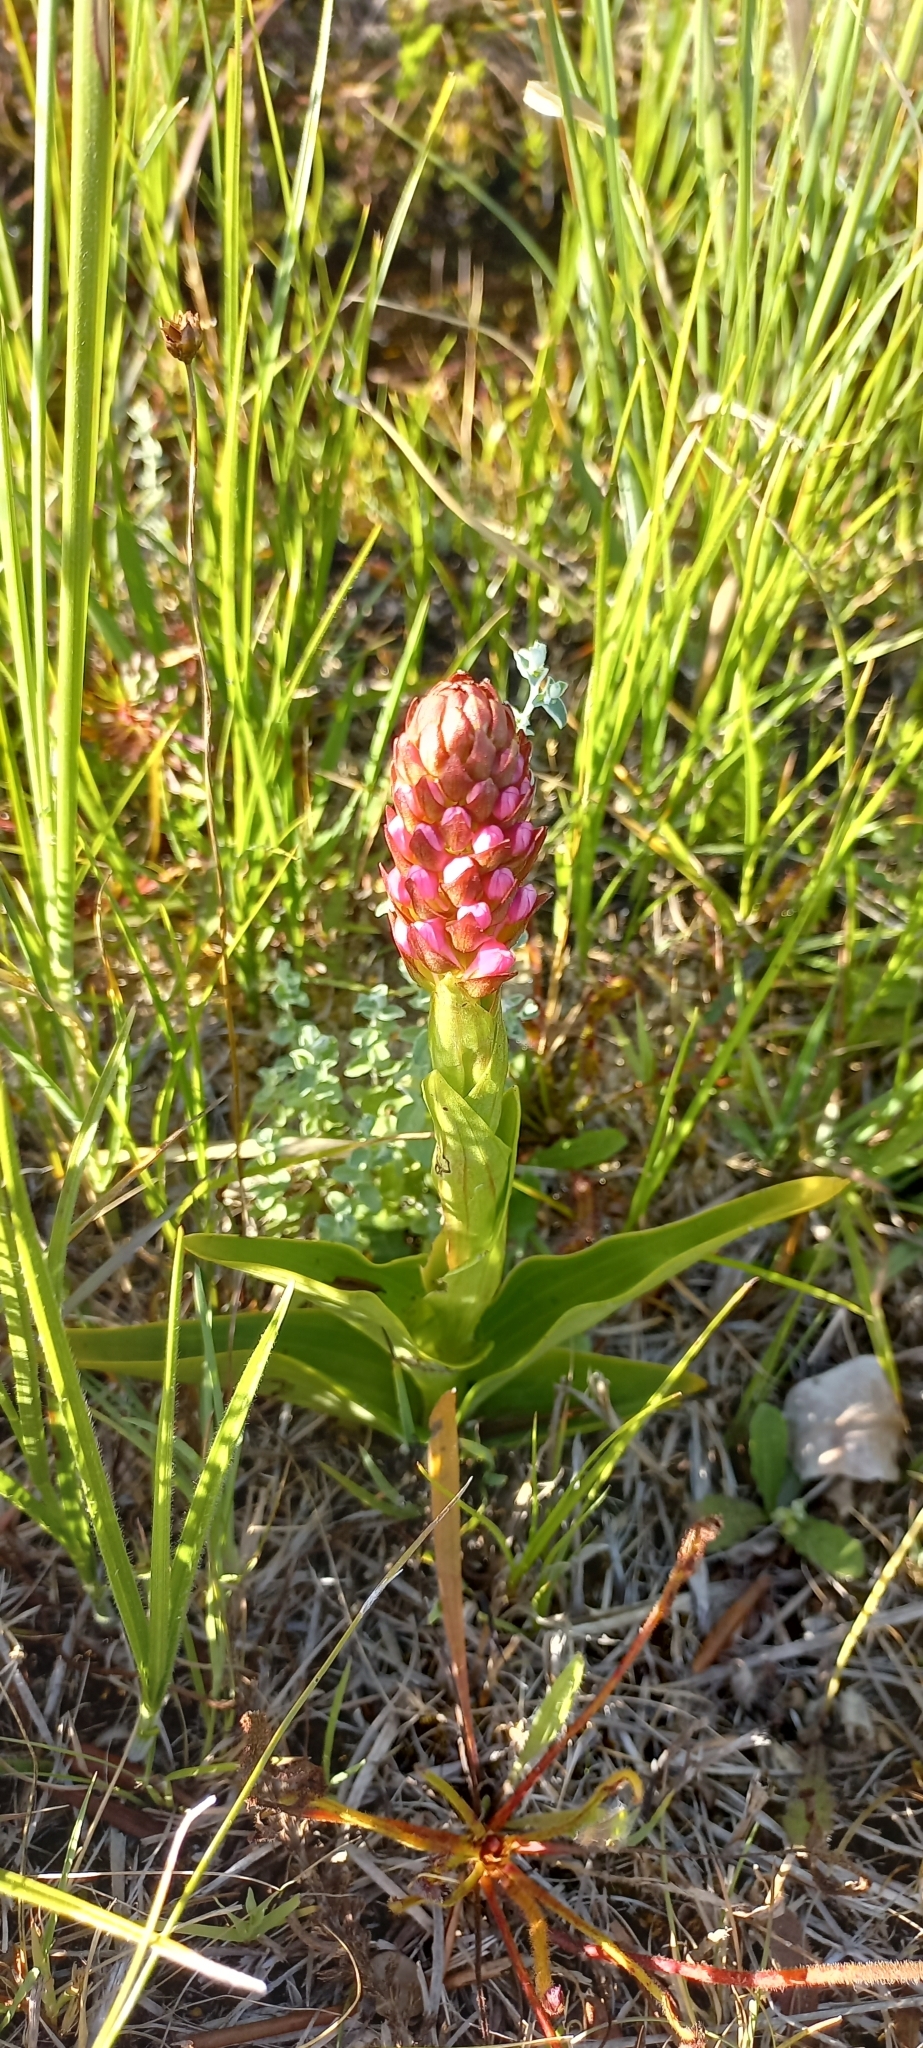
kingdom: Plantae
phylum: Tracheophyta
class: Liliopsida
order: Asparagales
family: Orchidaceae
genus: Satyrium
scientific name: Satyrium hallackii
